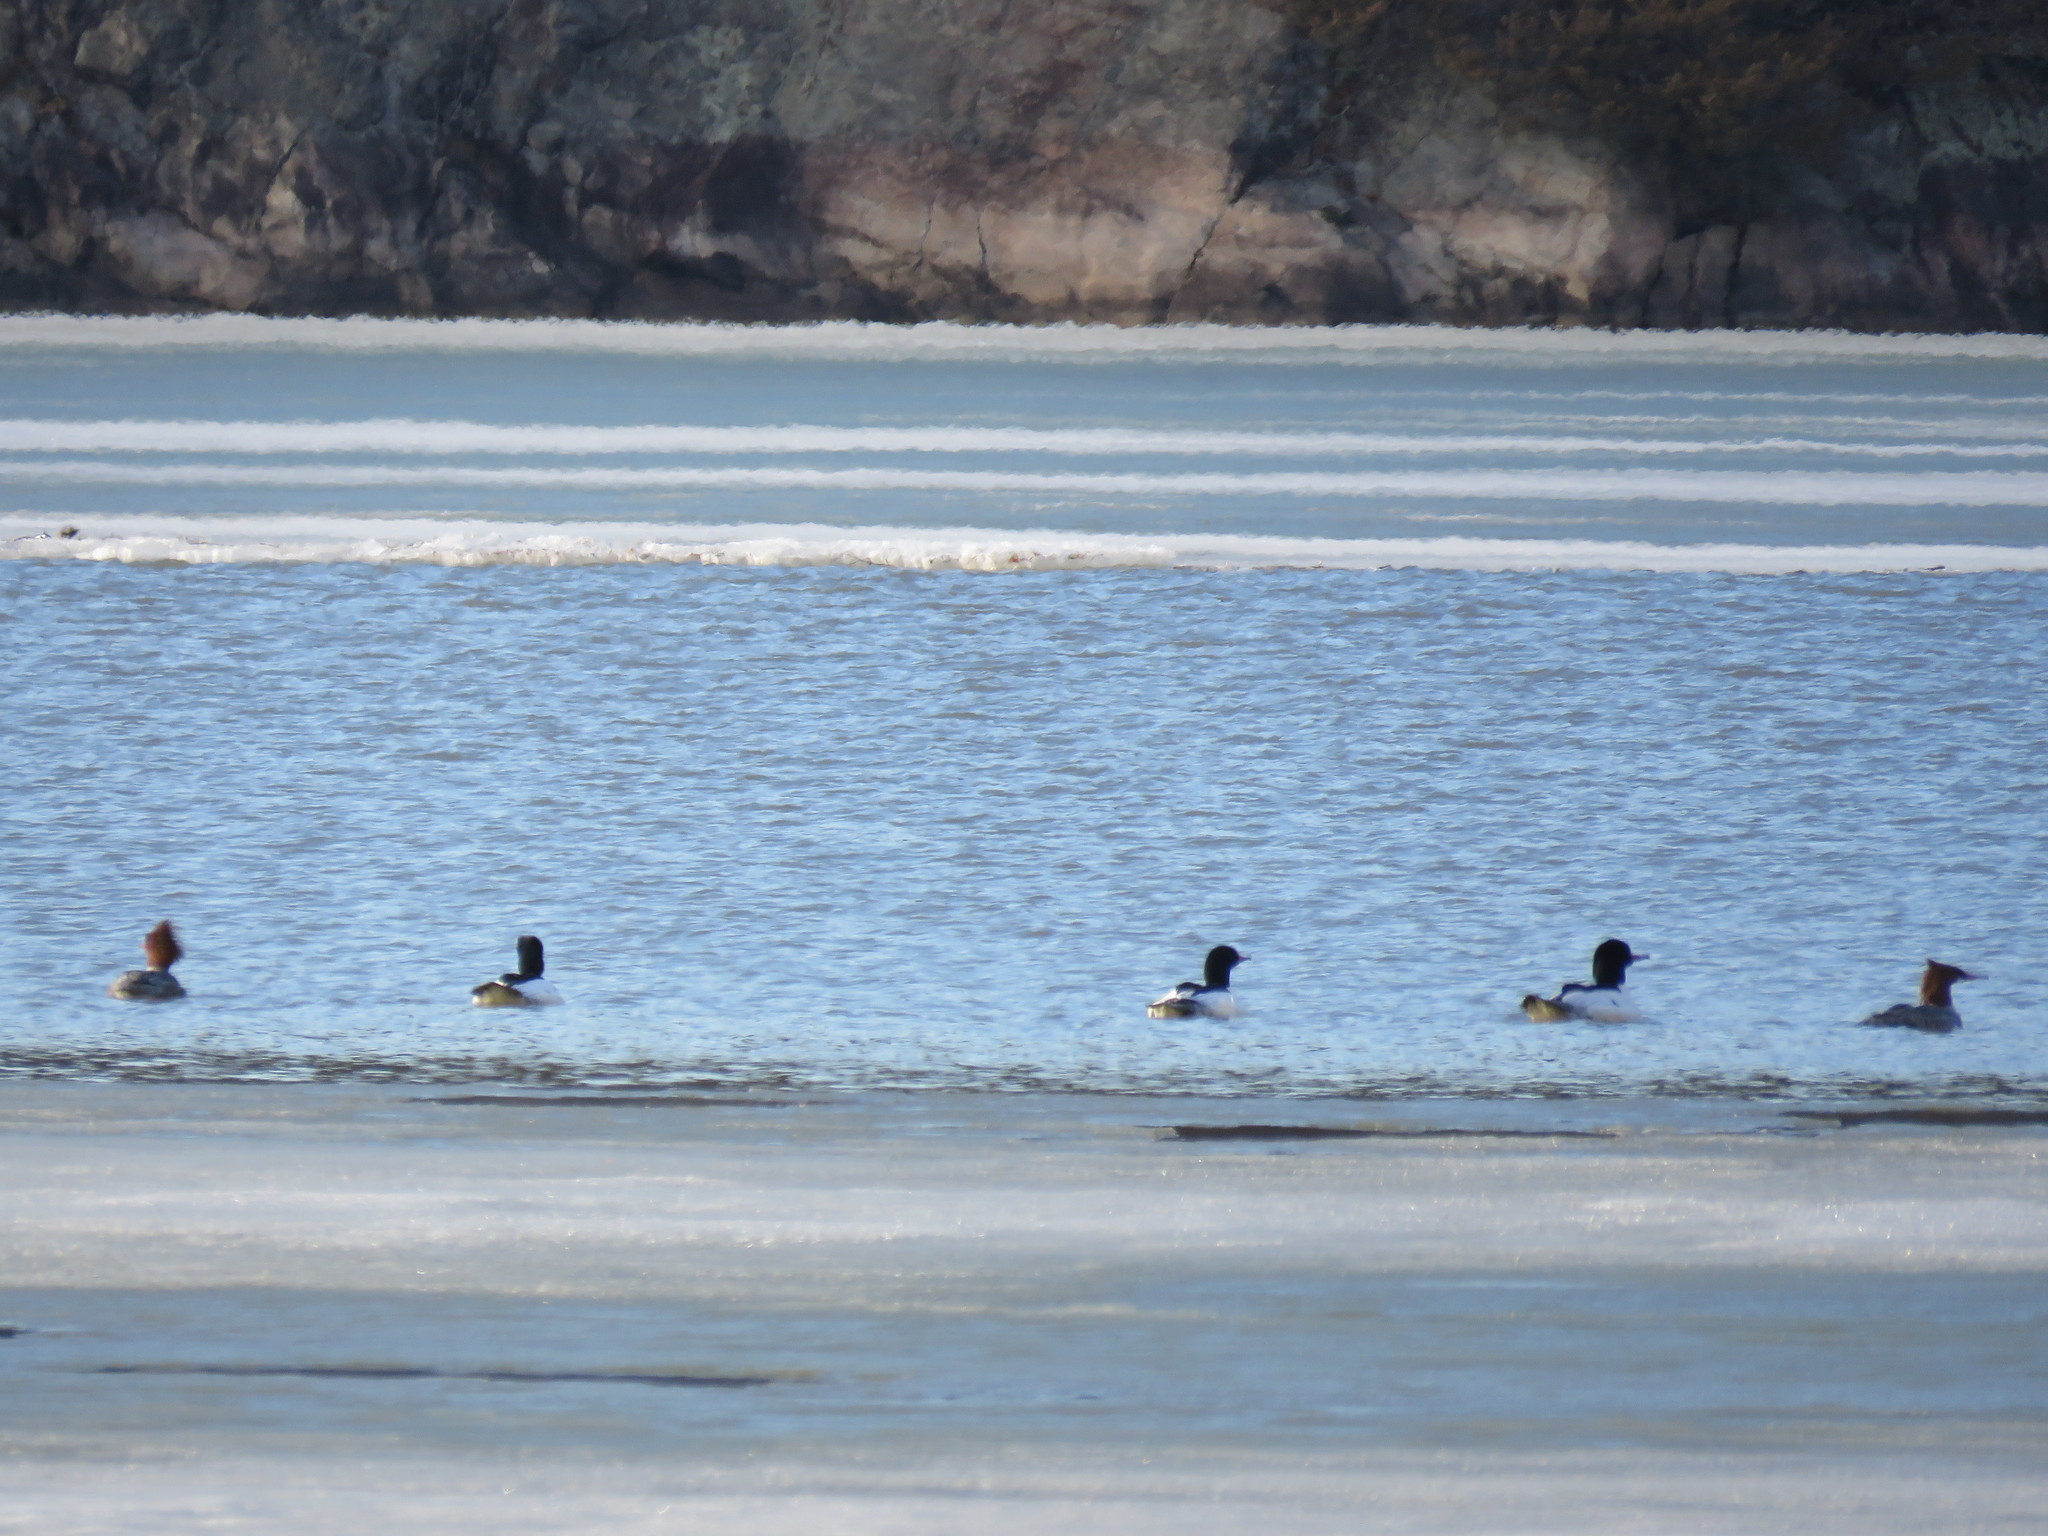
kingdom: Animalia
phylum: Chordata
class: Aves
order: Anseriformes
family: Anatidae
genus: Mergus
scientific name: Mergus merganser
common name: Common merganser
